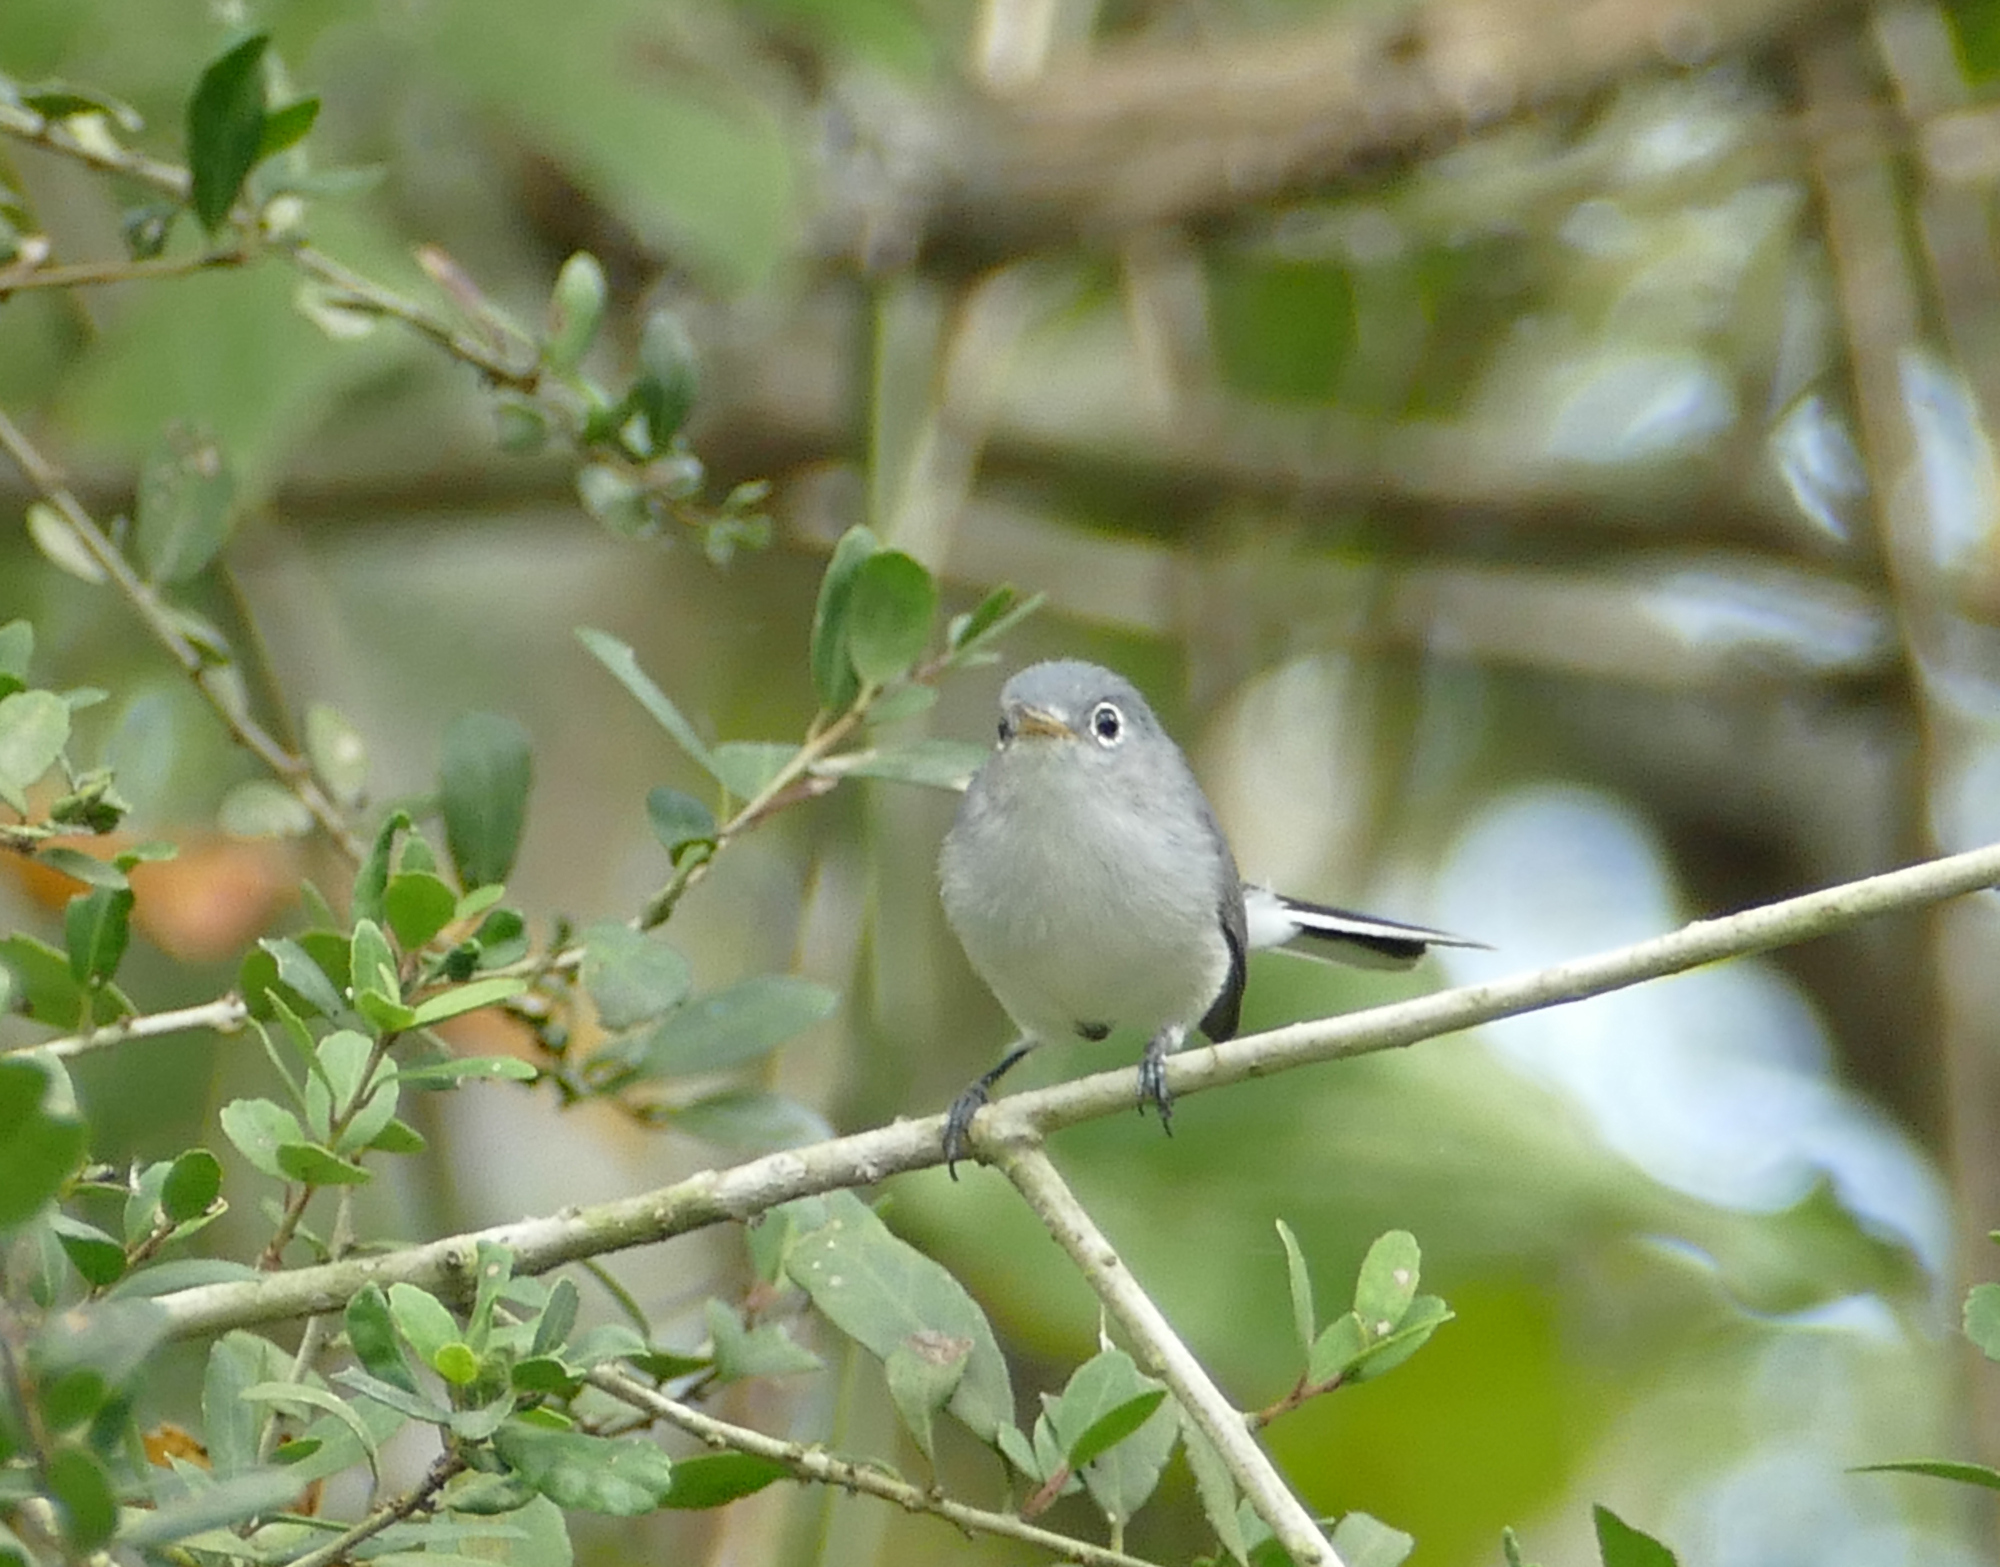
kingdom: Animalia
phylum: Chordata
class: Aves
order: Passeriformes
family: Polioptilidae
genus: Polioptila
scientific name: Polioptila caerulea
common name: Blue-gray gnatcatcher
